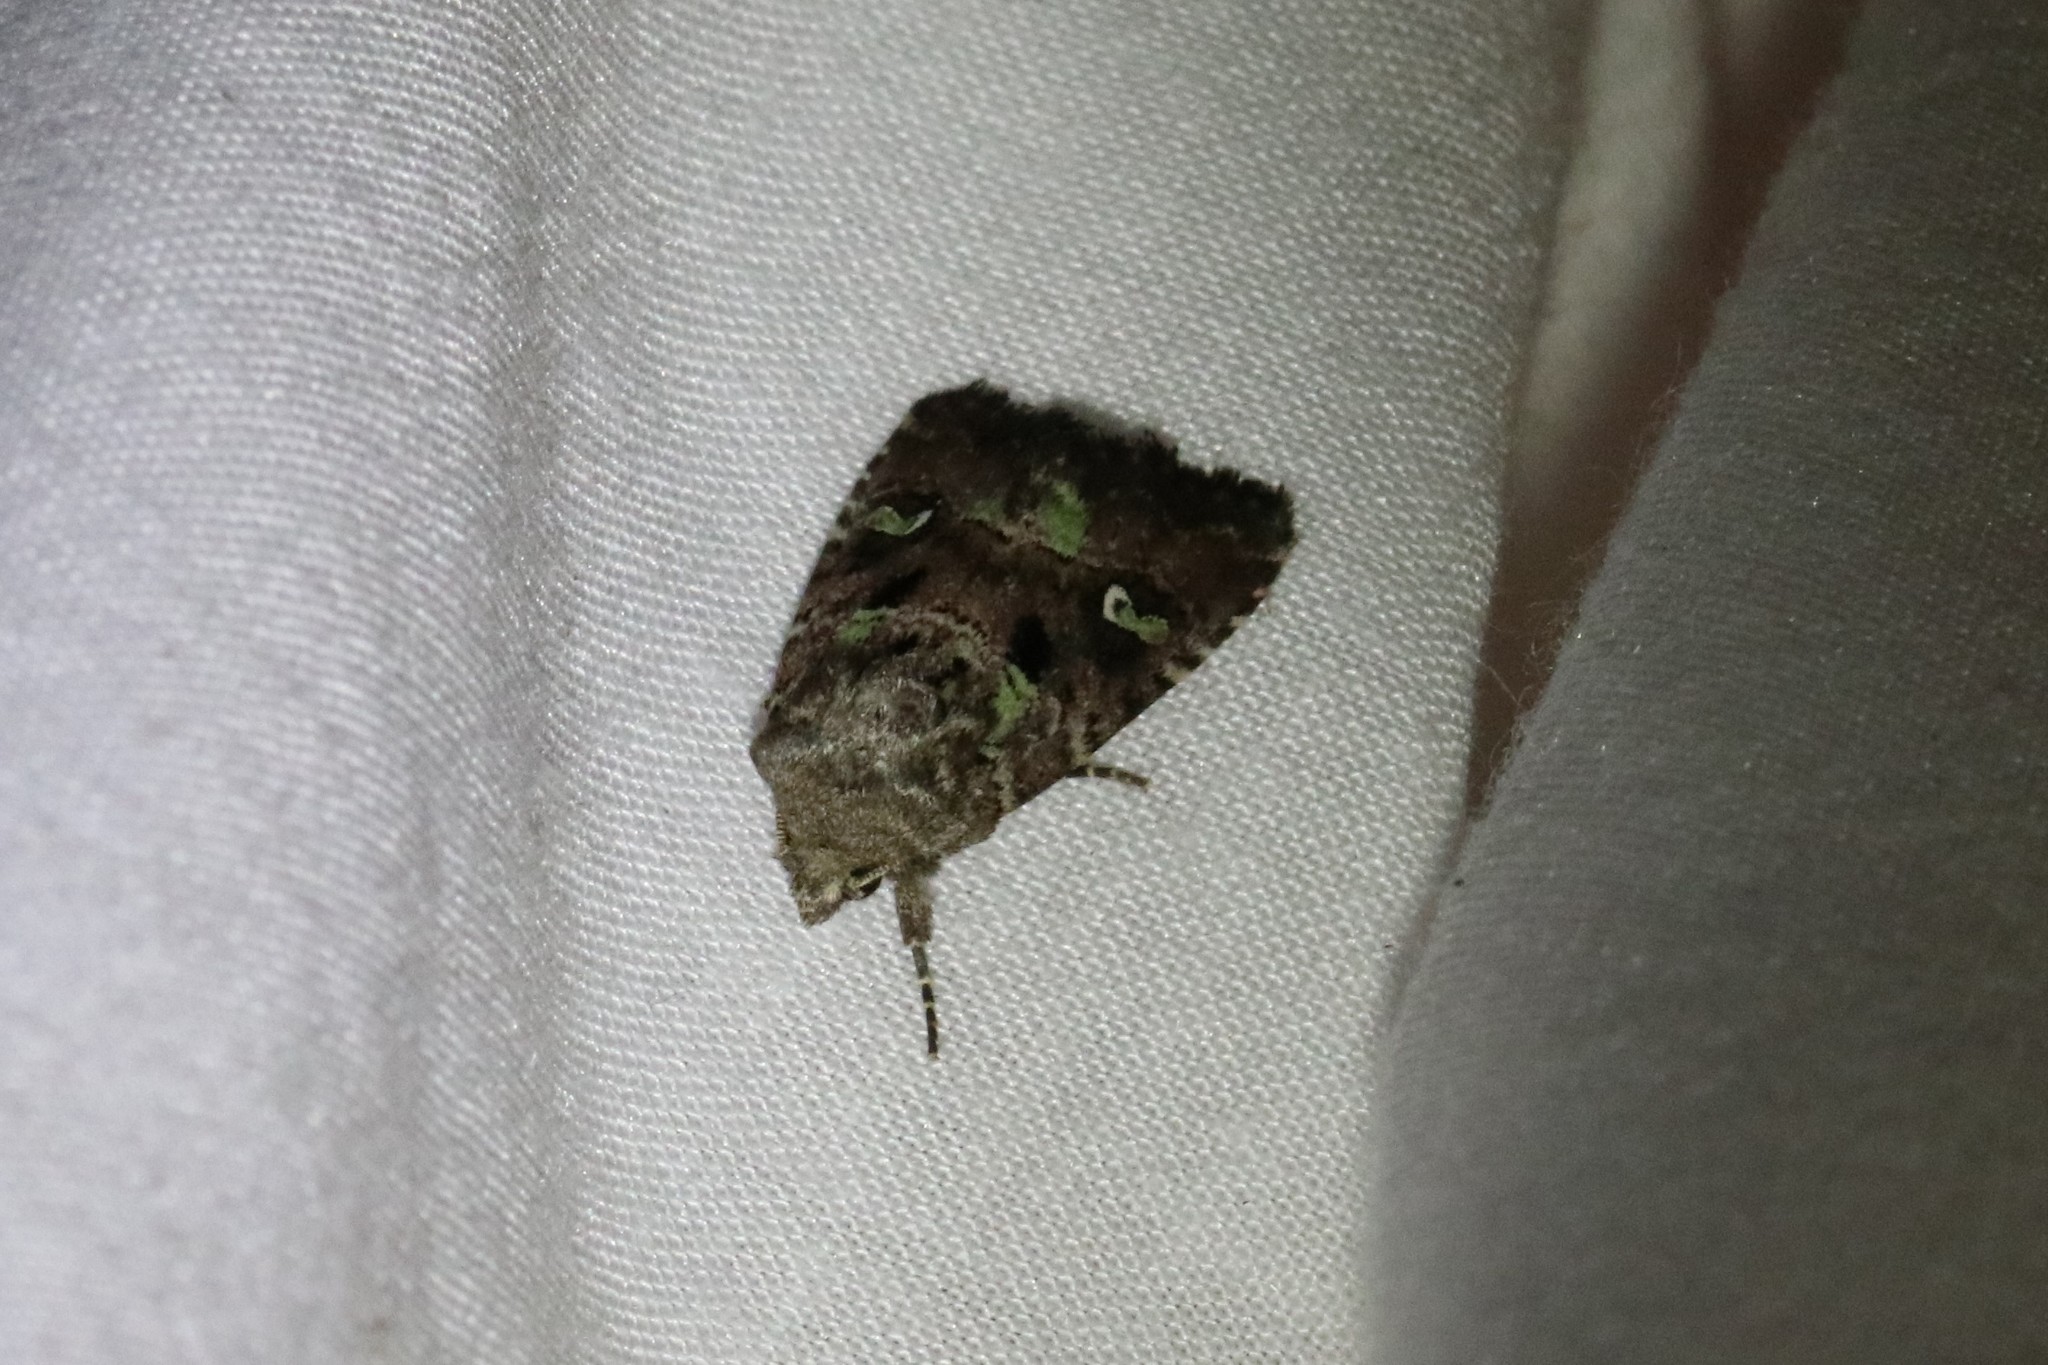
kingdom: Animalia
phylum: Arthropoda
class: Insecta
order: Lepidoptera
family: Noctuidae
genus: Lacinipolia
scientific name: Lacinipolia renigera
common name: Kidney-spotted minor
